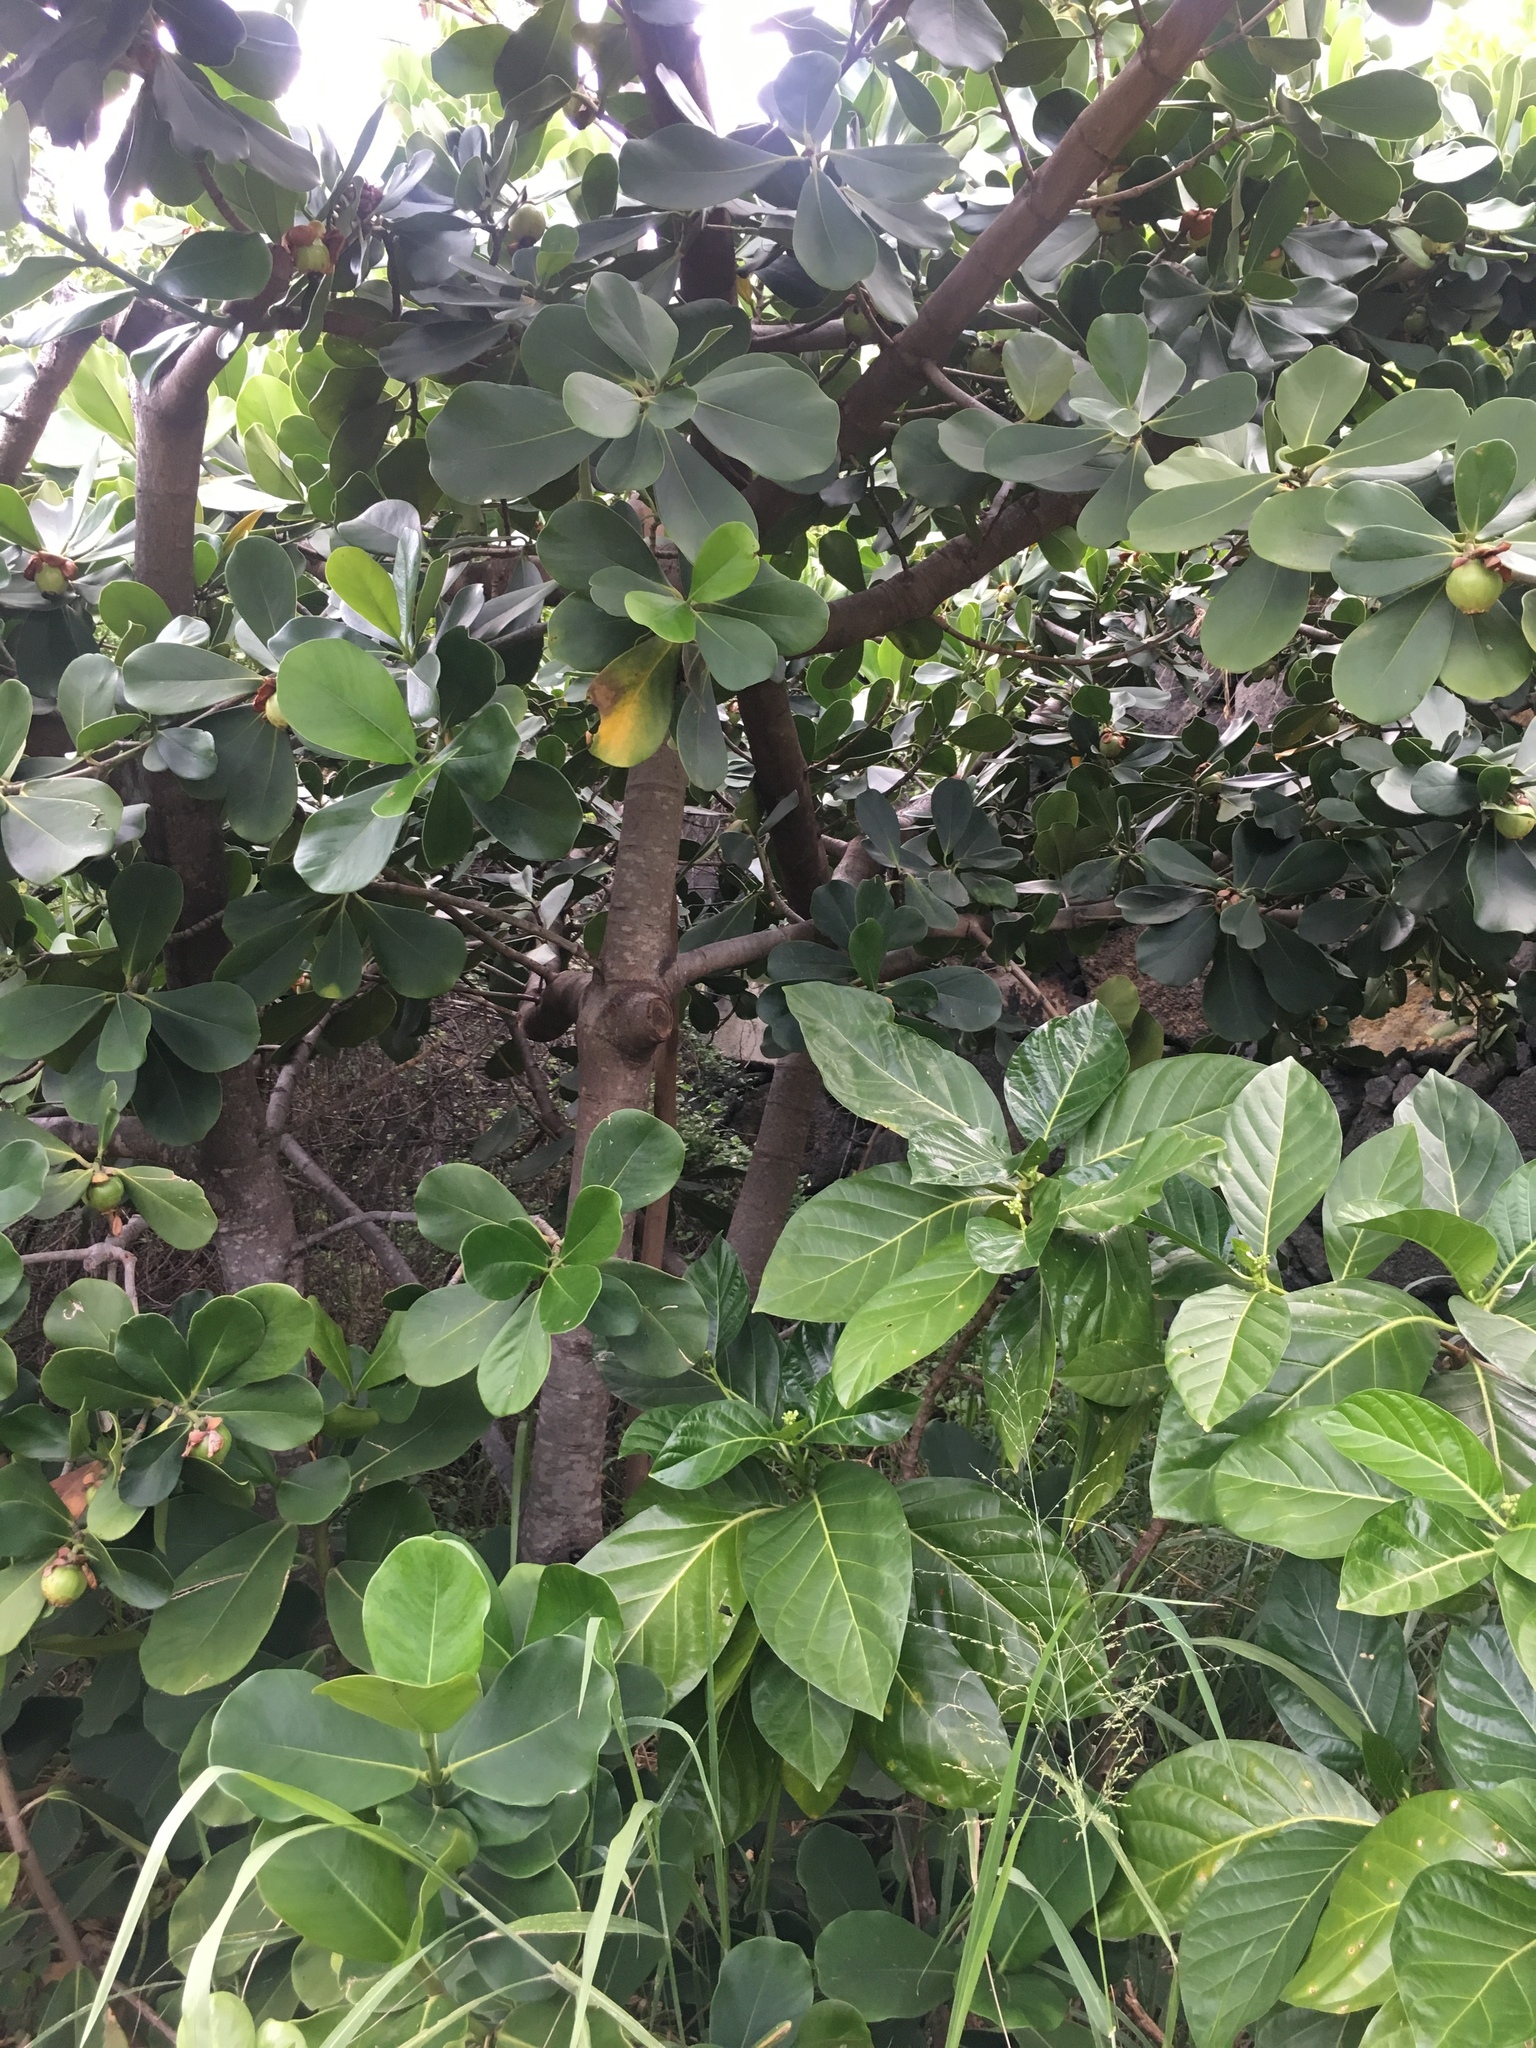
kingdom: Plantae
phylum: Tracheophyta
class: Magnoliopsida
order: Malpighiales
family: Clusiaceae
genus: Clusia
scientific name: Clusia rosea
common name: Scotch attorney
